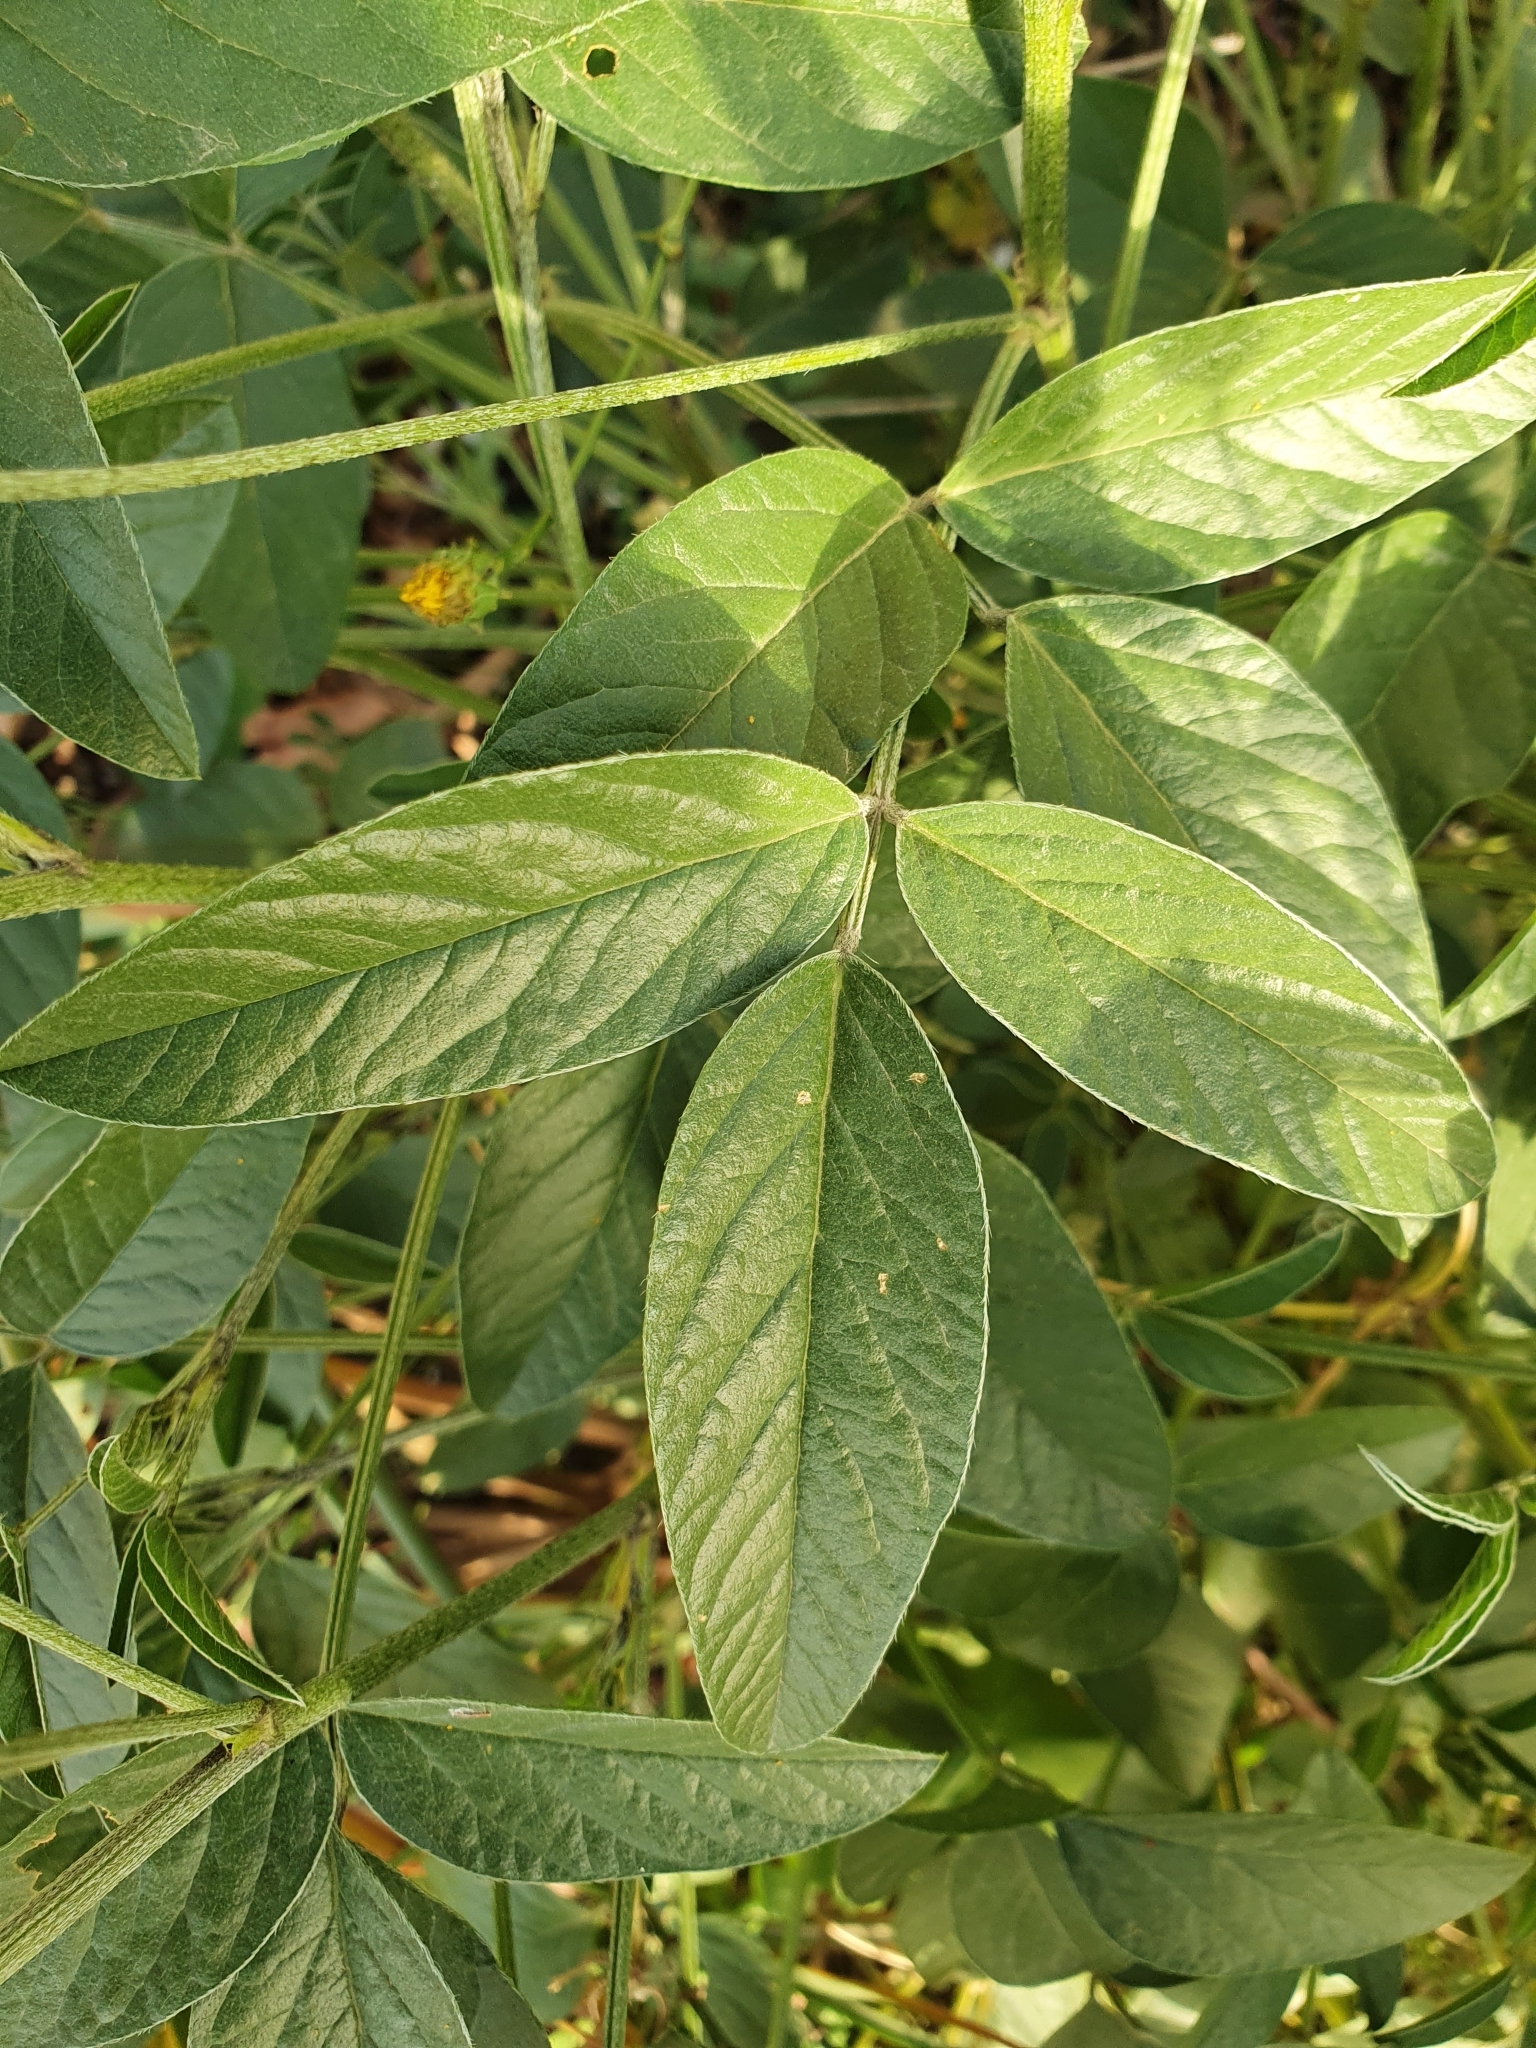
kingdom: Plantae
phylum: Tracheophyta
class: Magnoliopsida
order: Fabales
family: Fabaceae
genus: Bituminaria
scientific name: Bituminaria bituminosa
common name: Arabian pea
